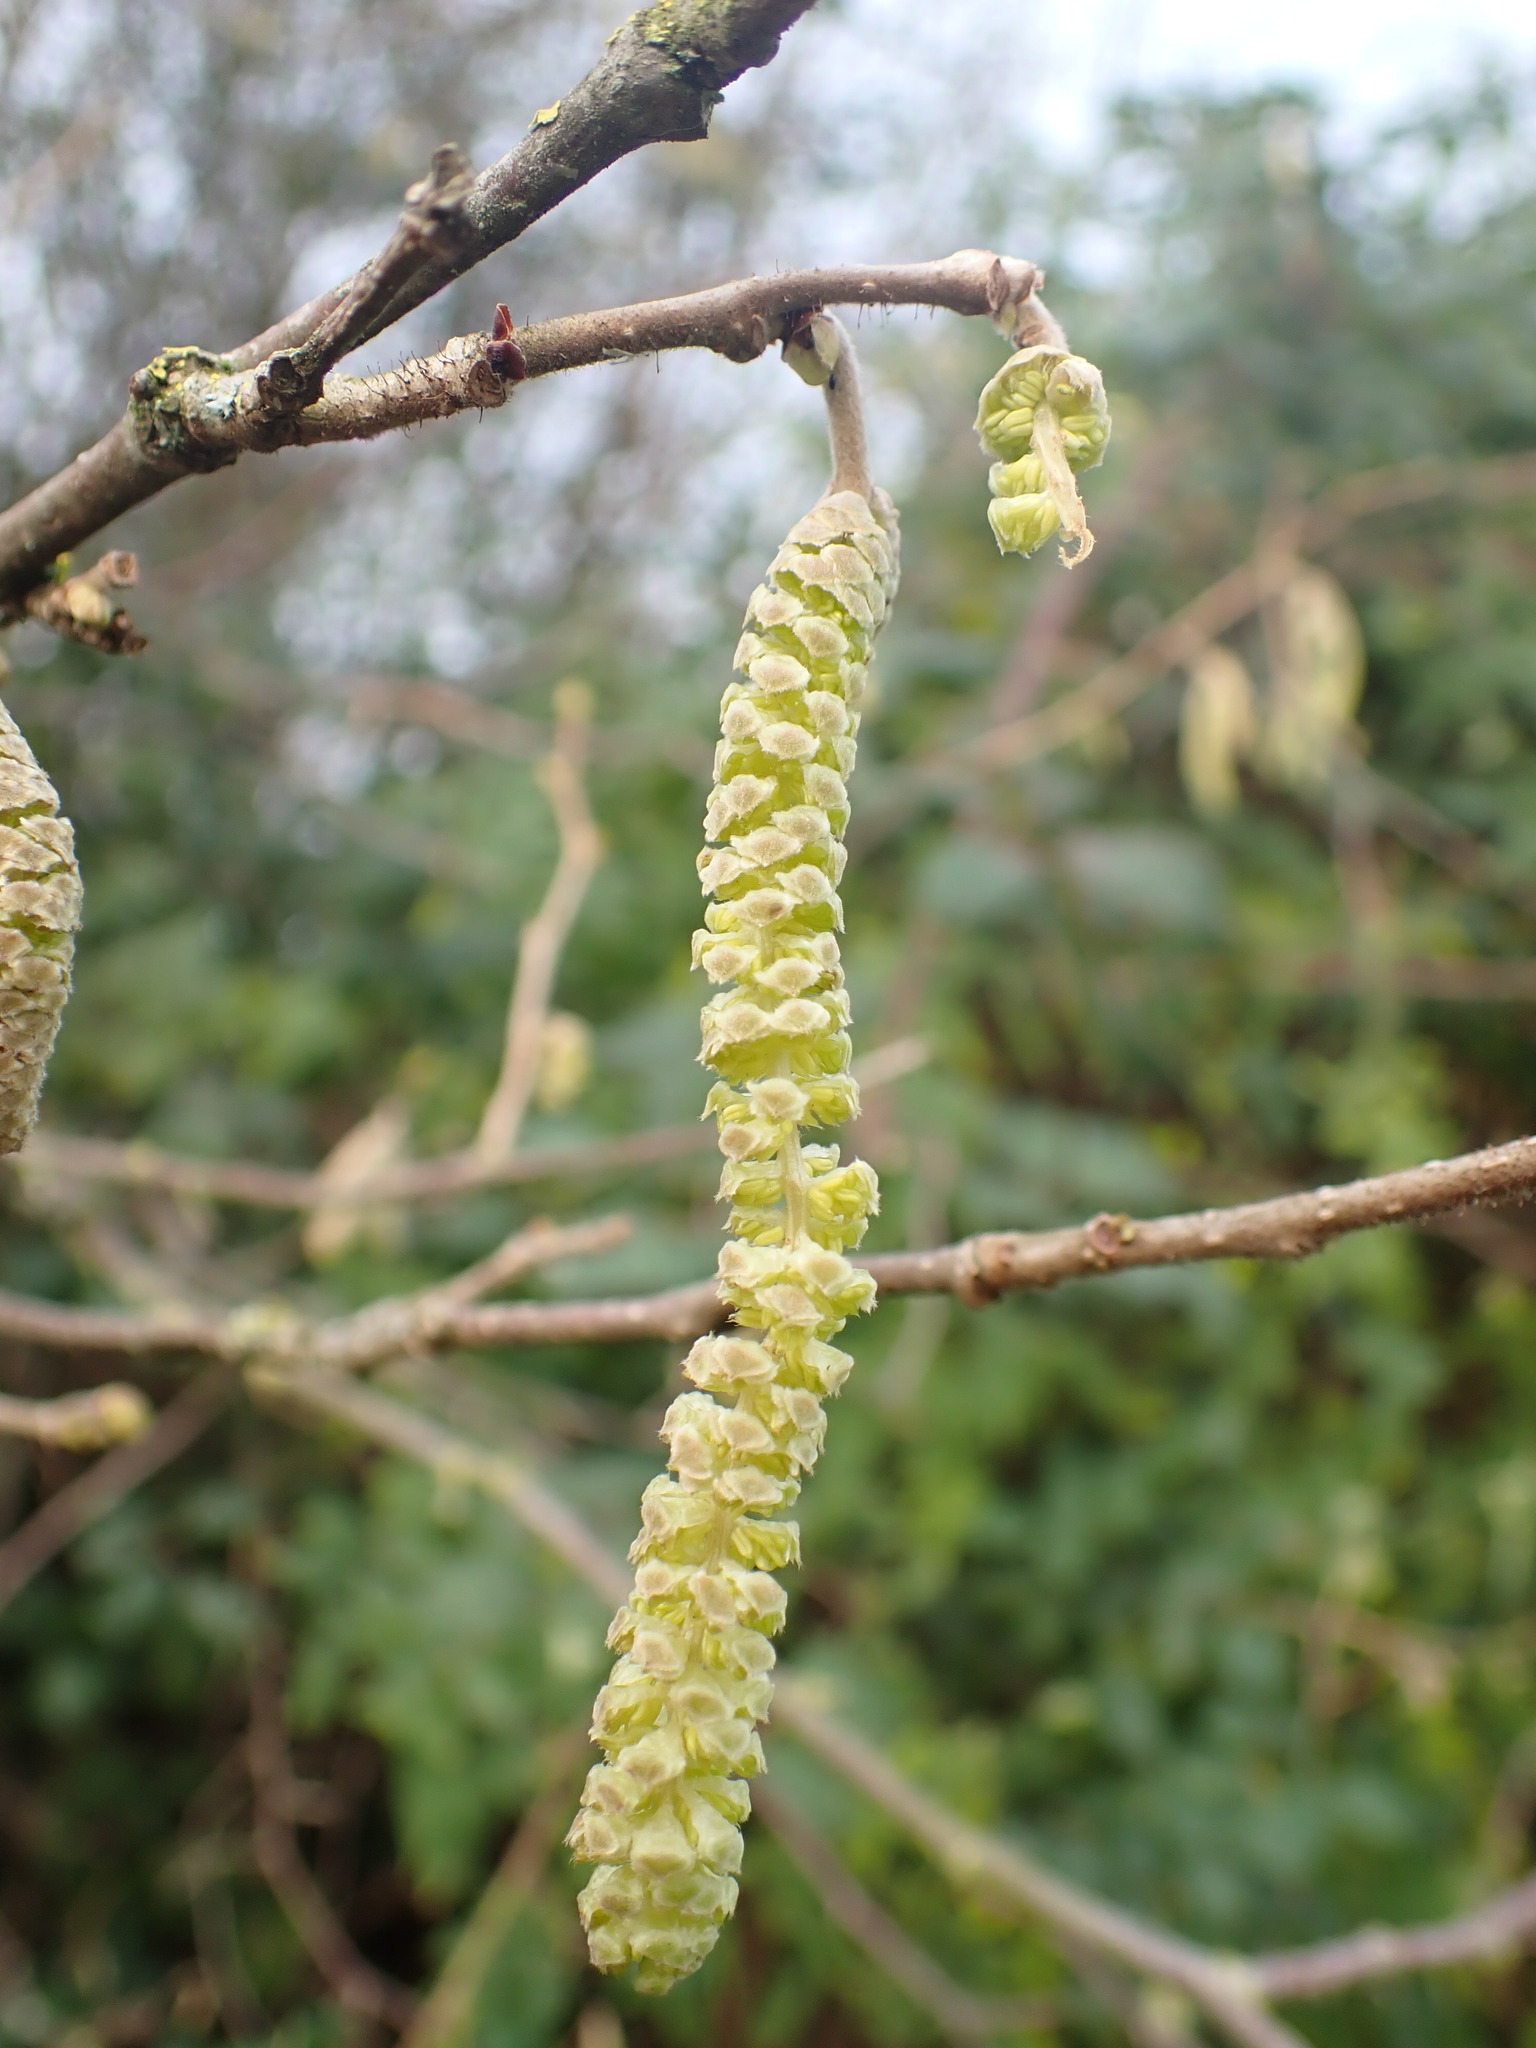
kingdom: Plantae
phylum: Tracheophyta
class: Magnoliopsida
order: Fagales
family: Betulaceae
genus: Corylus
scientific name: Corylus avellana
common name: European hazel
